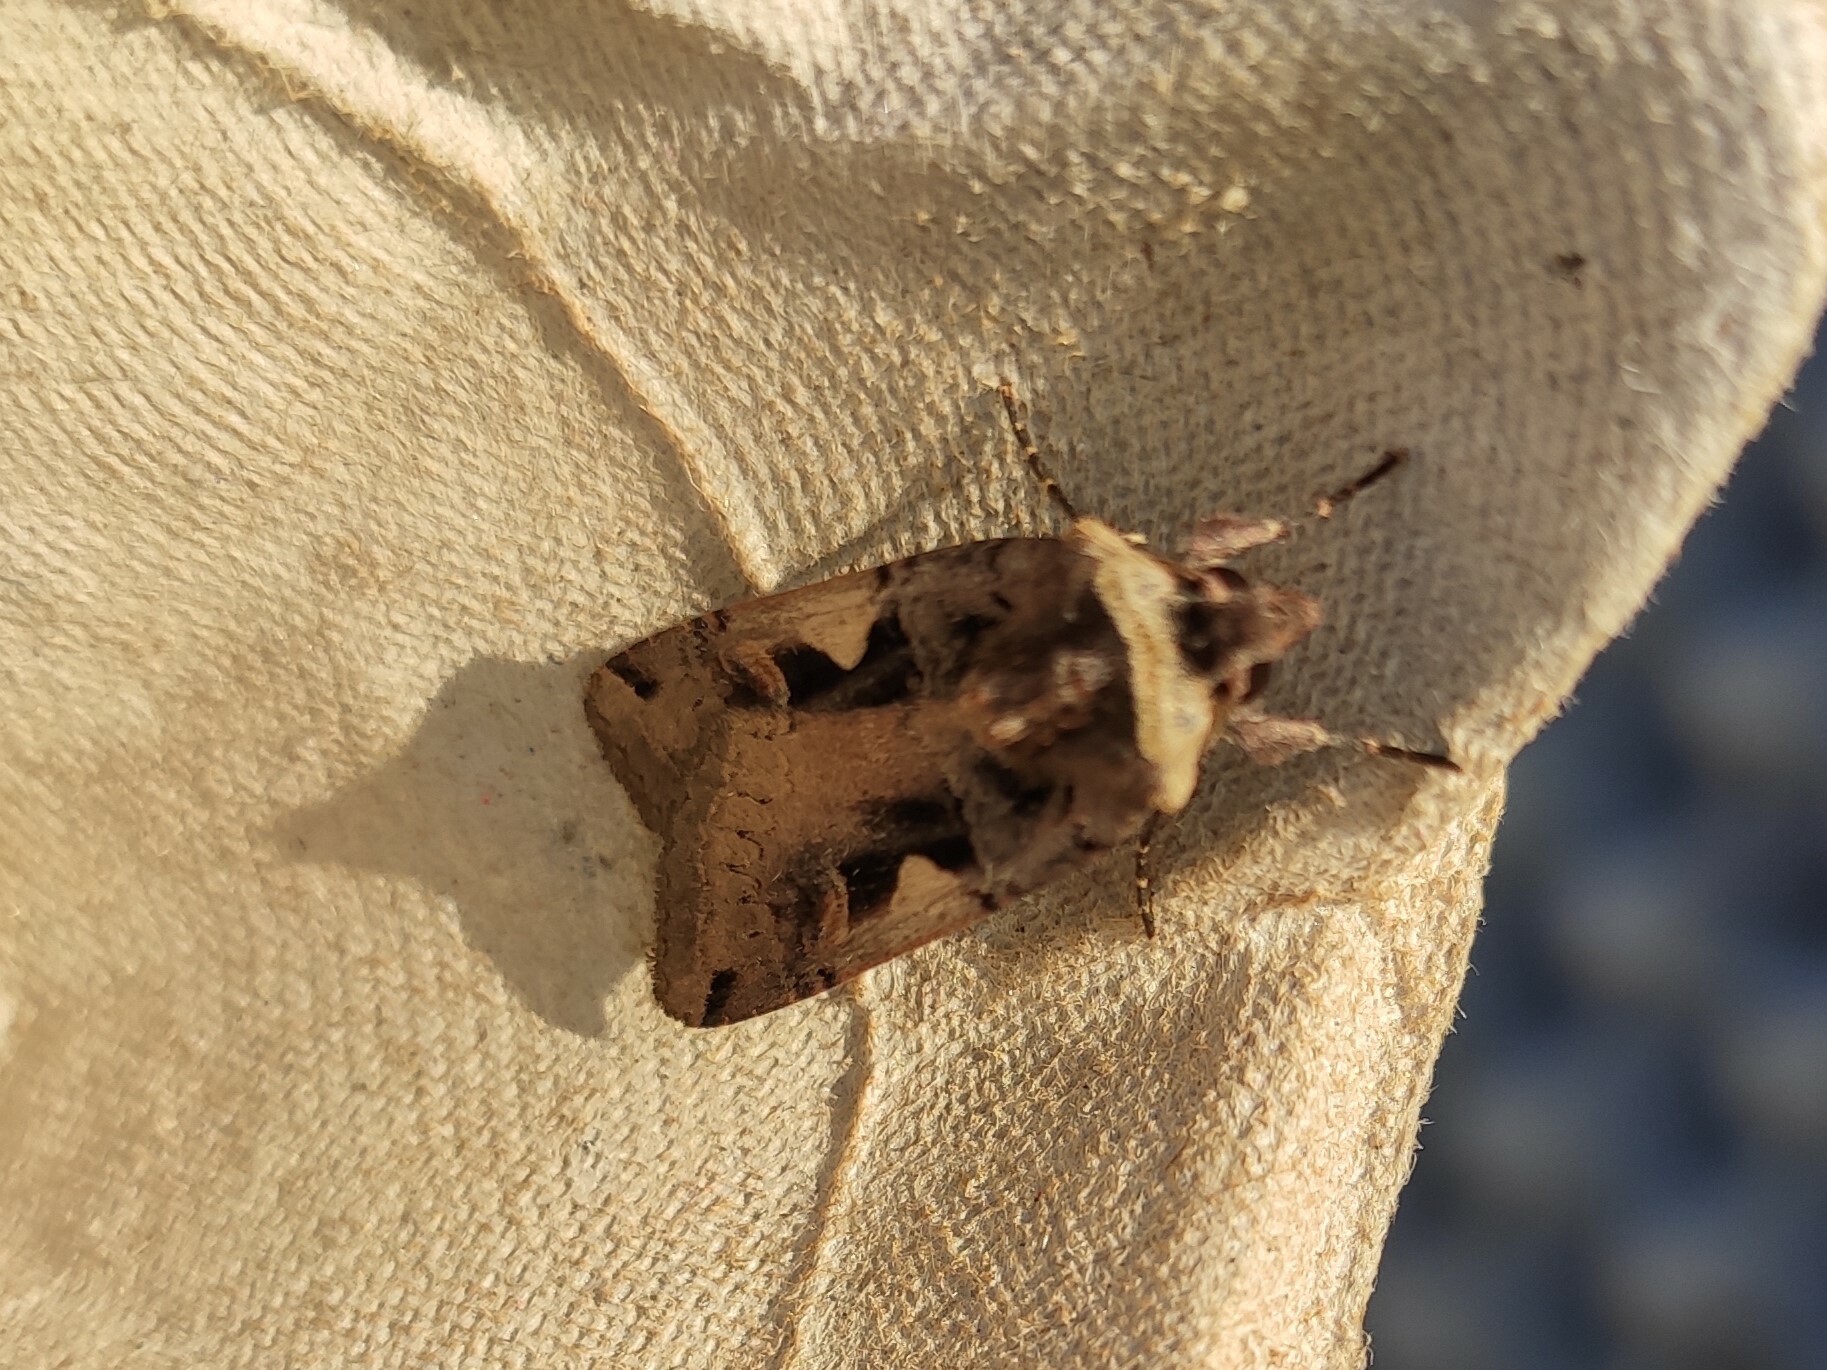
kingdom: Animalia
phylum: Arthropoda
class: Insecta
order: Lepidoptera
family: Noctuidae
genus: Xestia
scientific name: Xestia c-nigrum
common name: Setaceous hebrew character
